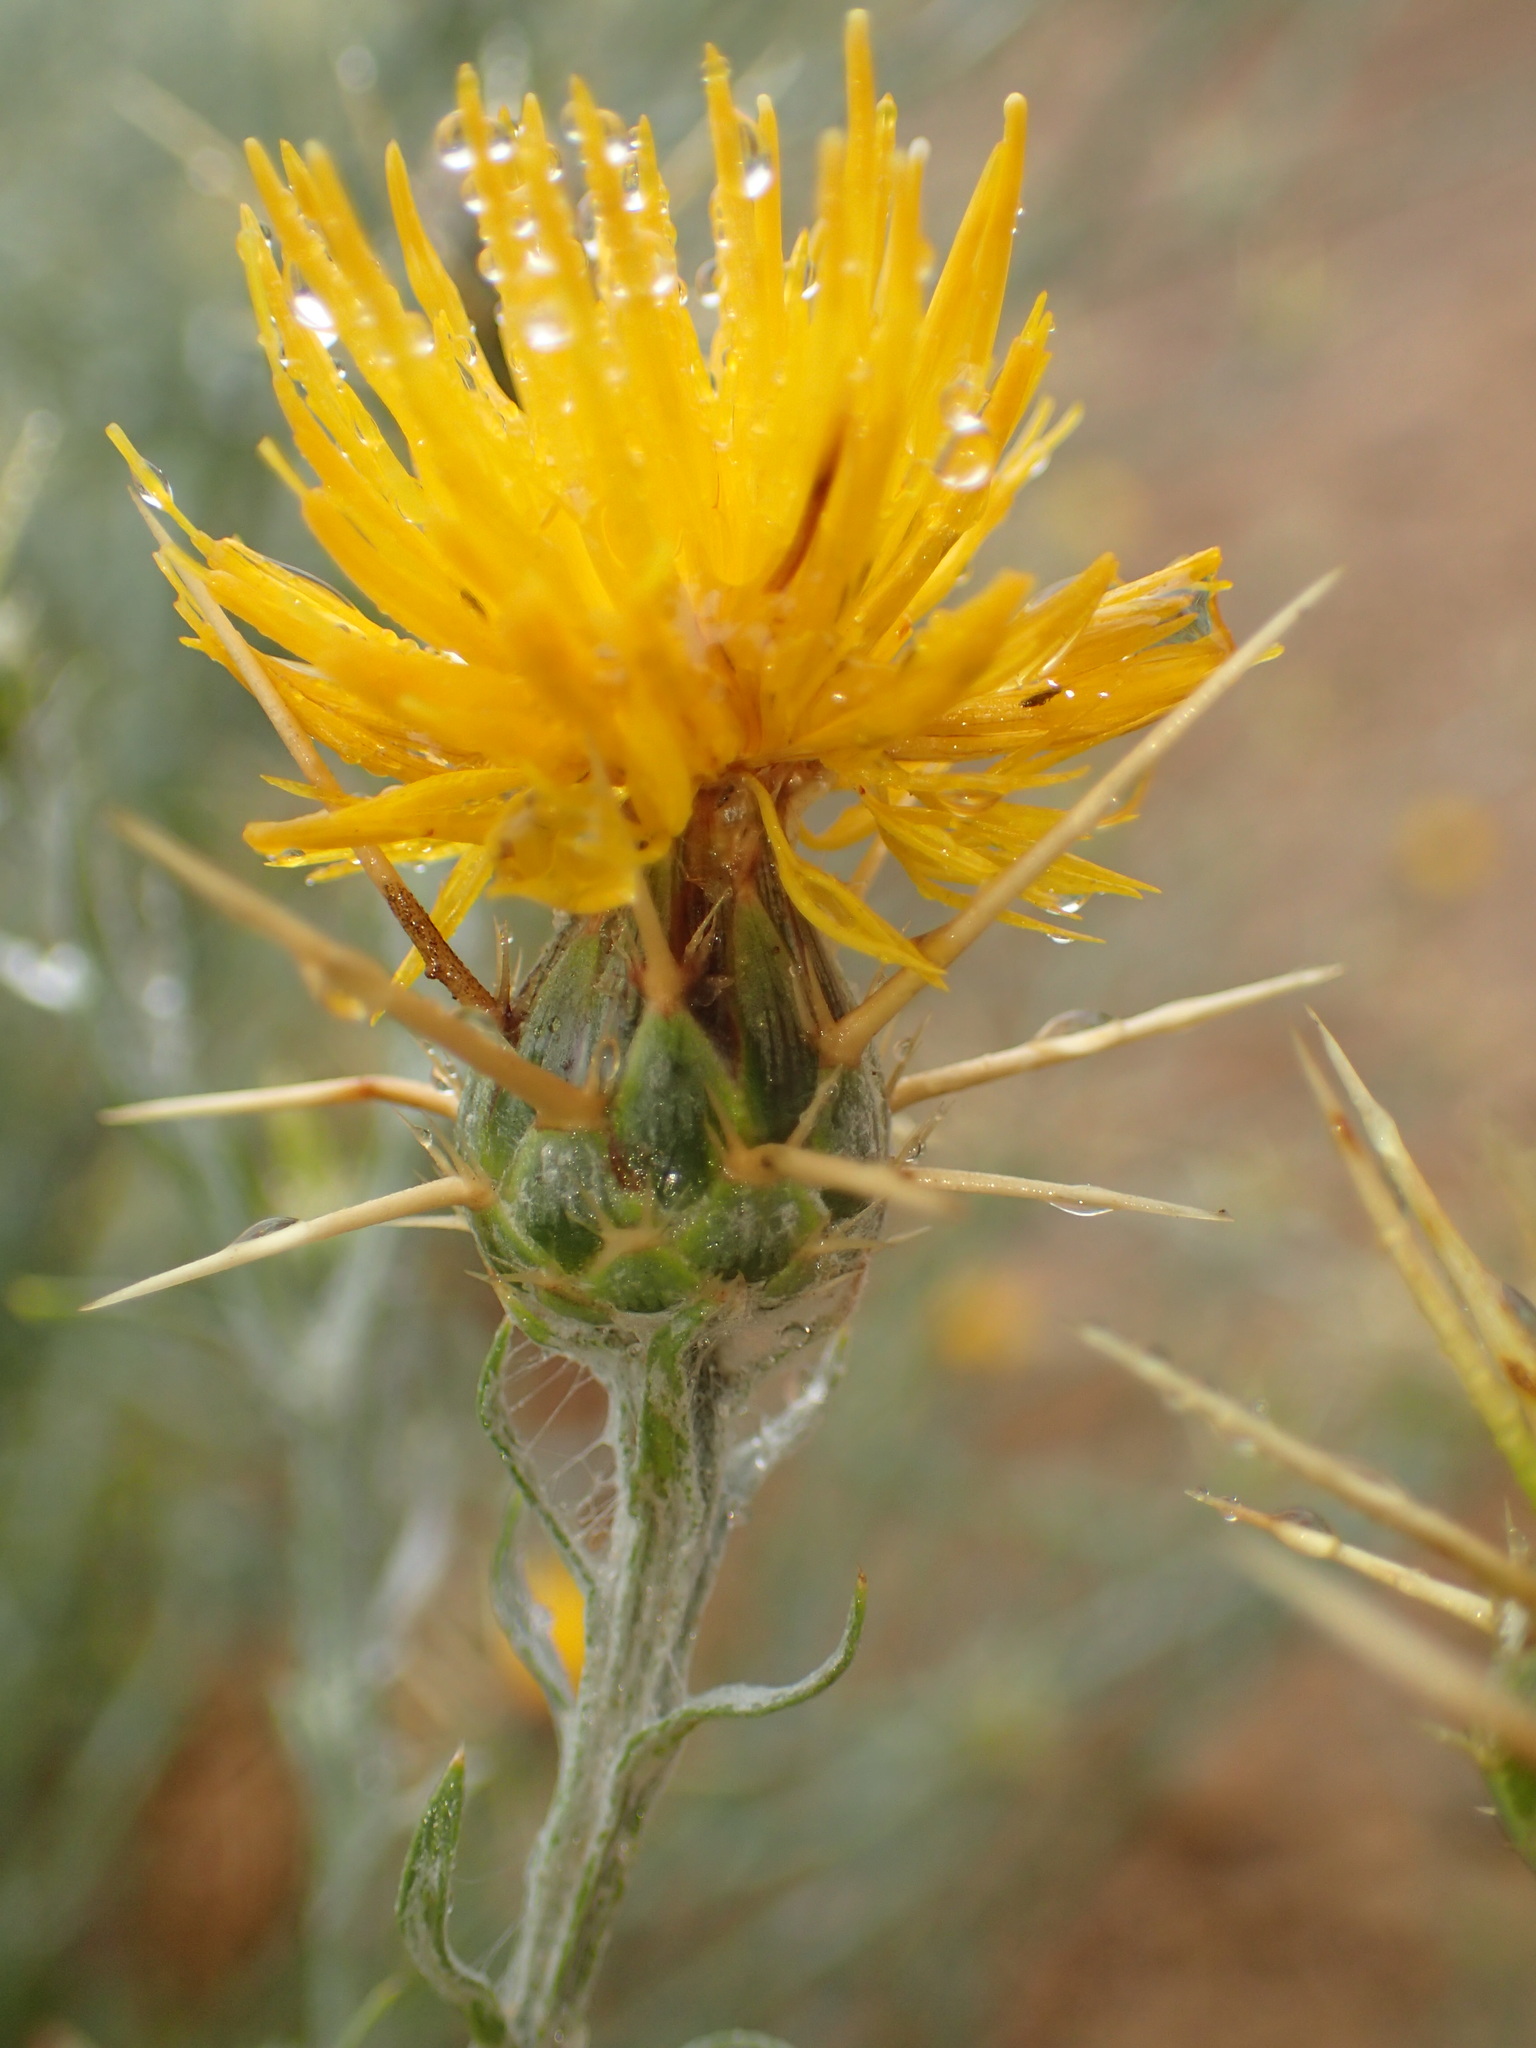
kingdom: Plantae
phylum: Tracheophyta
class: Magnoliopsida
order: Asterales
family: Asteraceae
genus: Centaurea
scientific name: Centaurea solstitialis
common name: Yellow star-thistle
